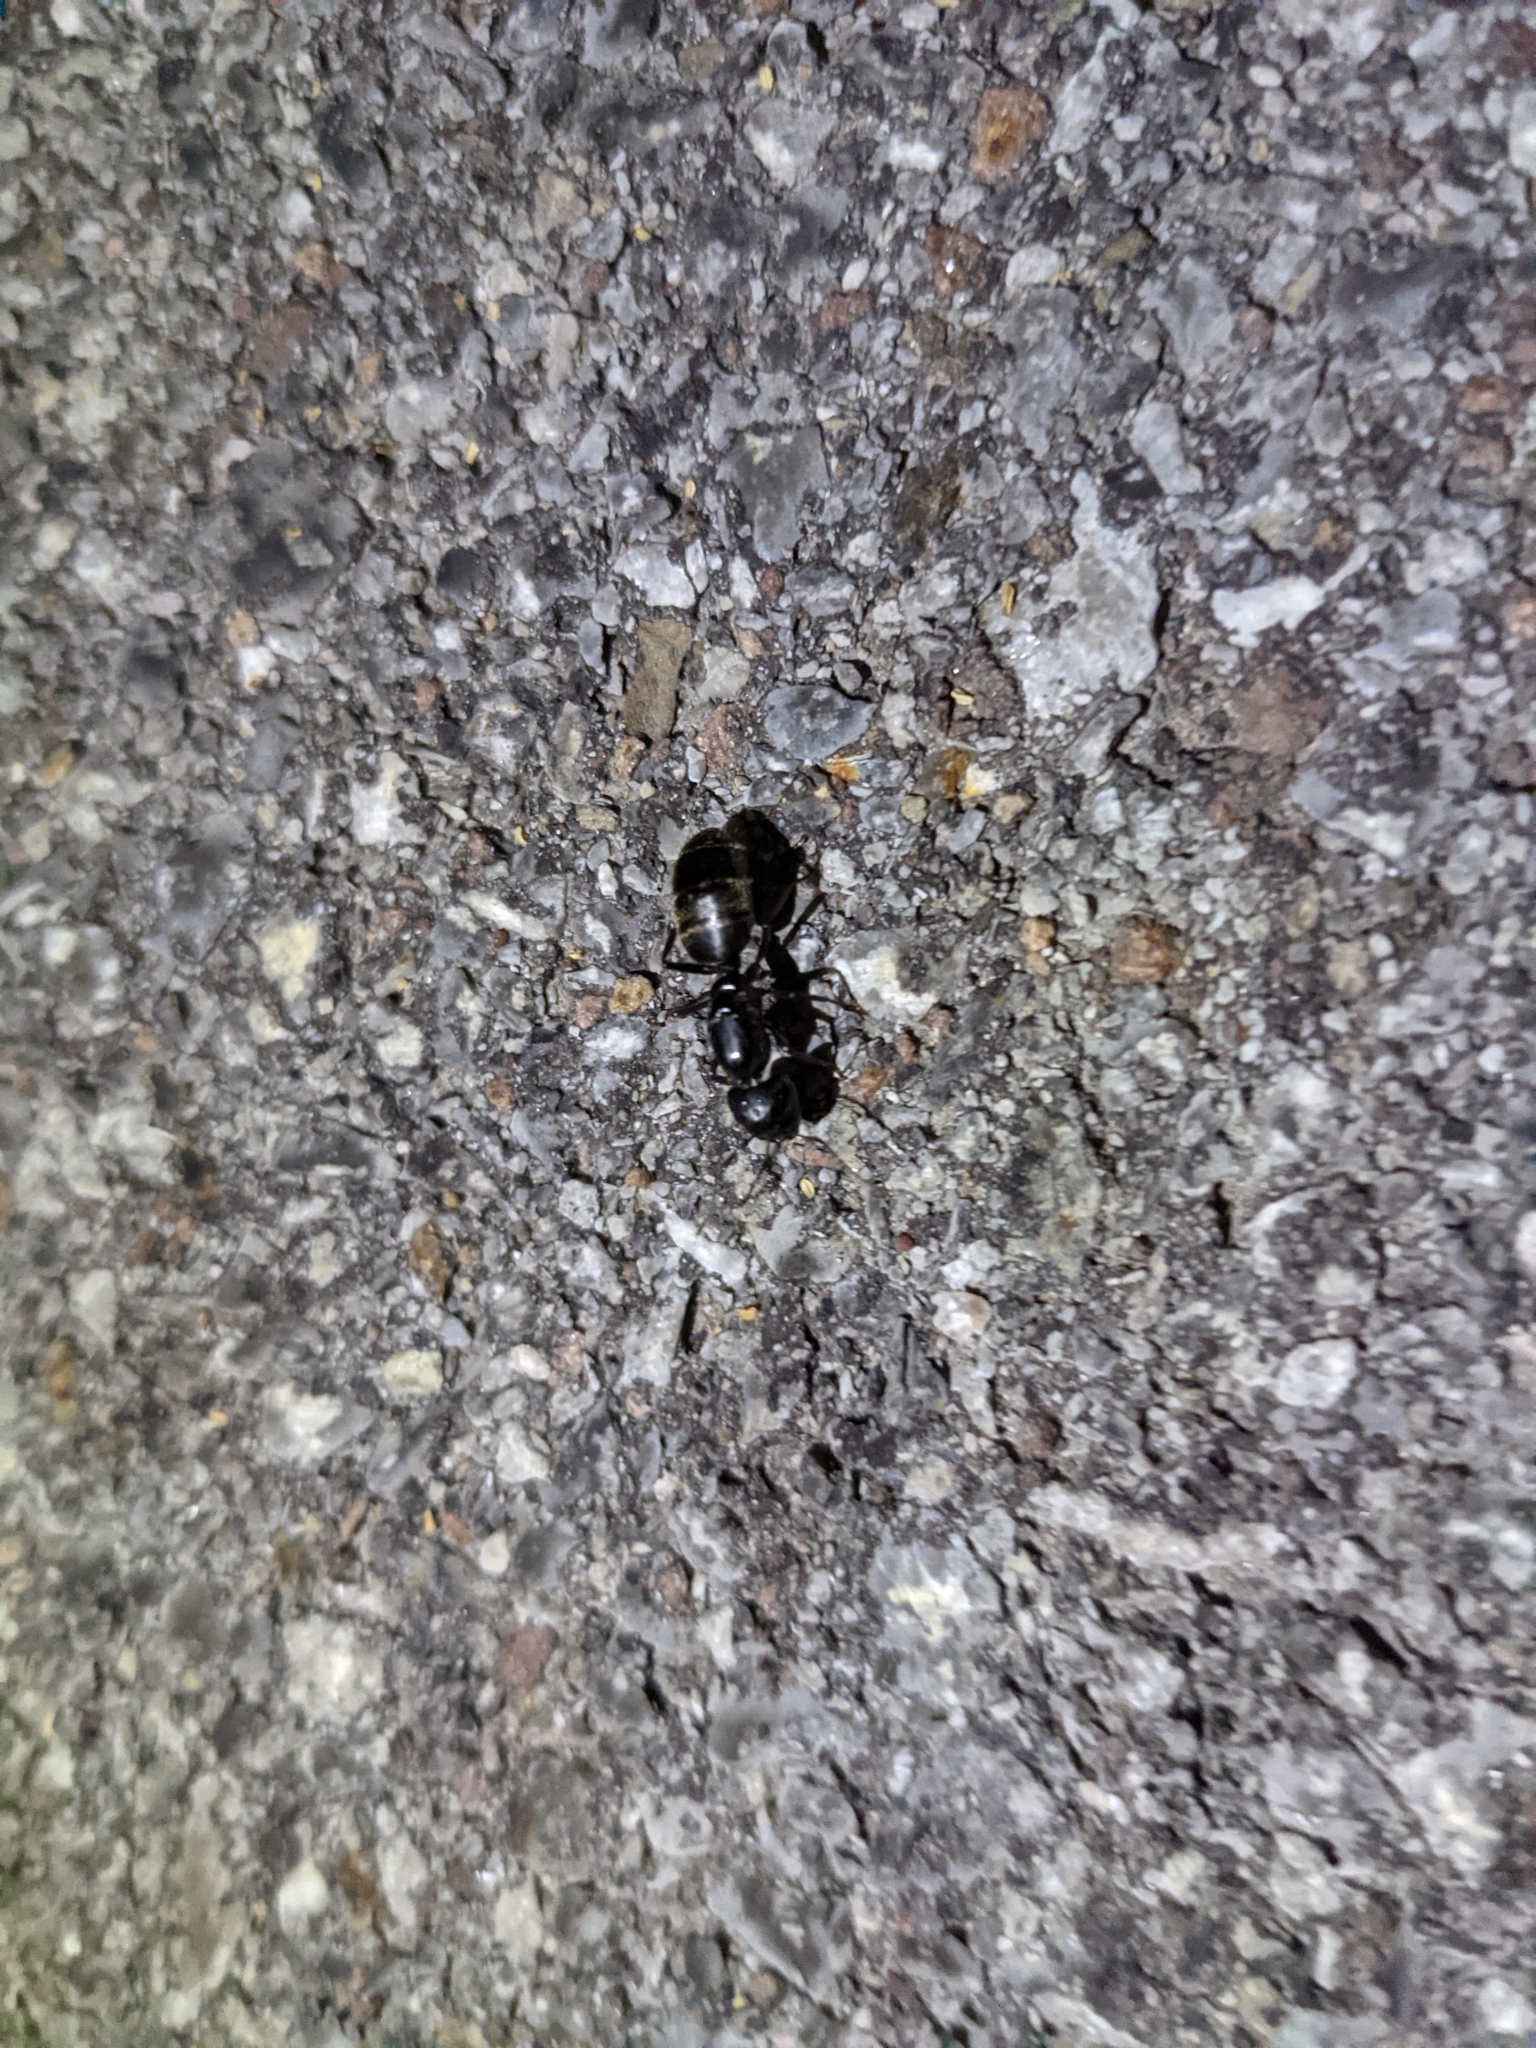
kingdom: Animalia
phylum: Arthropoda
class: Insecta
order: Hymenoptera
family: Formicidae
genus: Camponotus
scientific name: Camponotus pennsylvanicus
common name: Black carpenter ant
